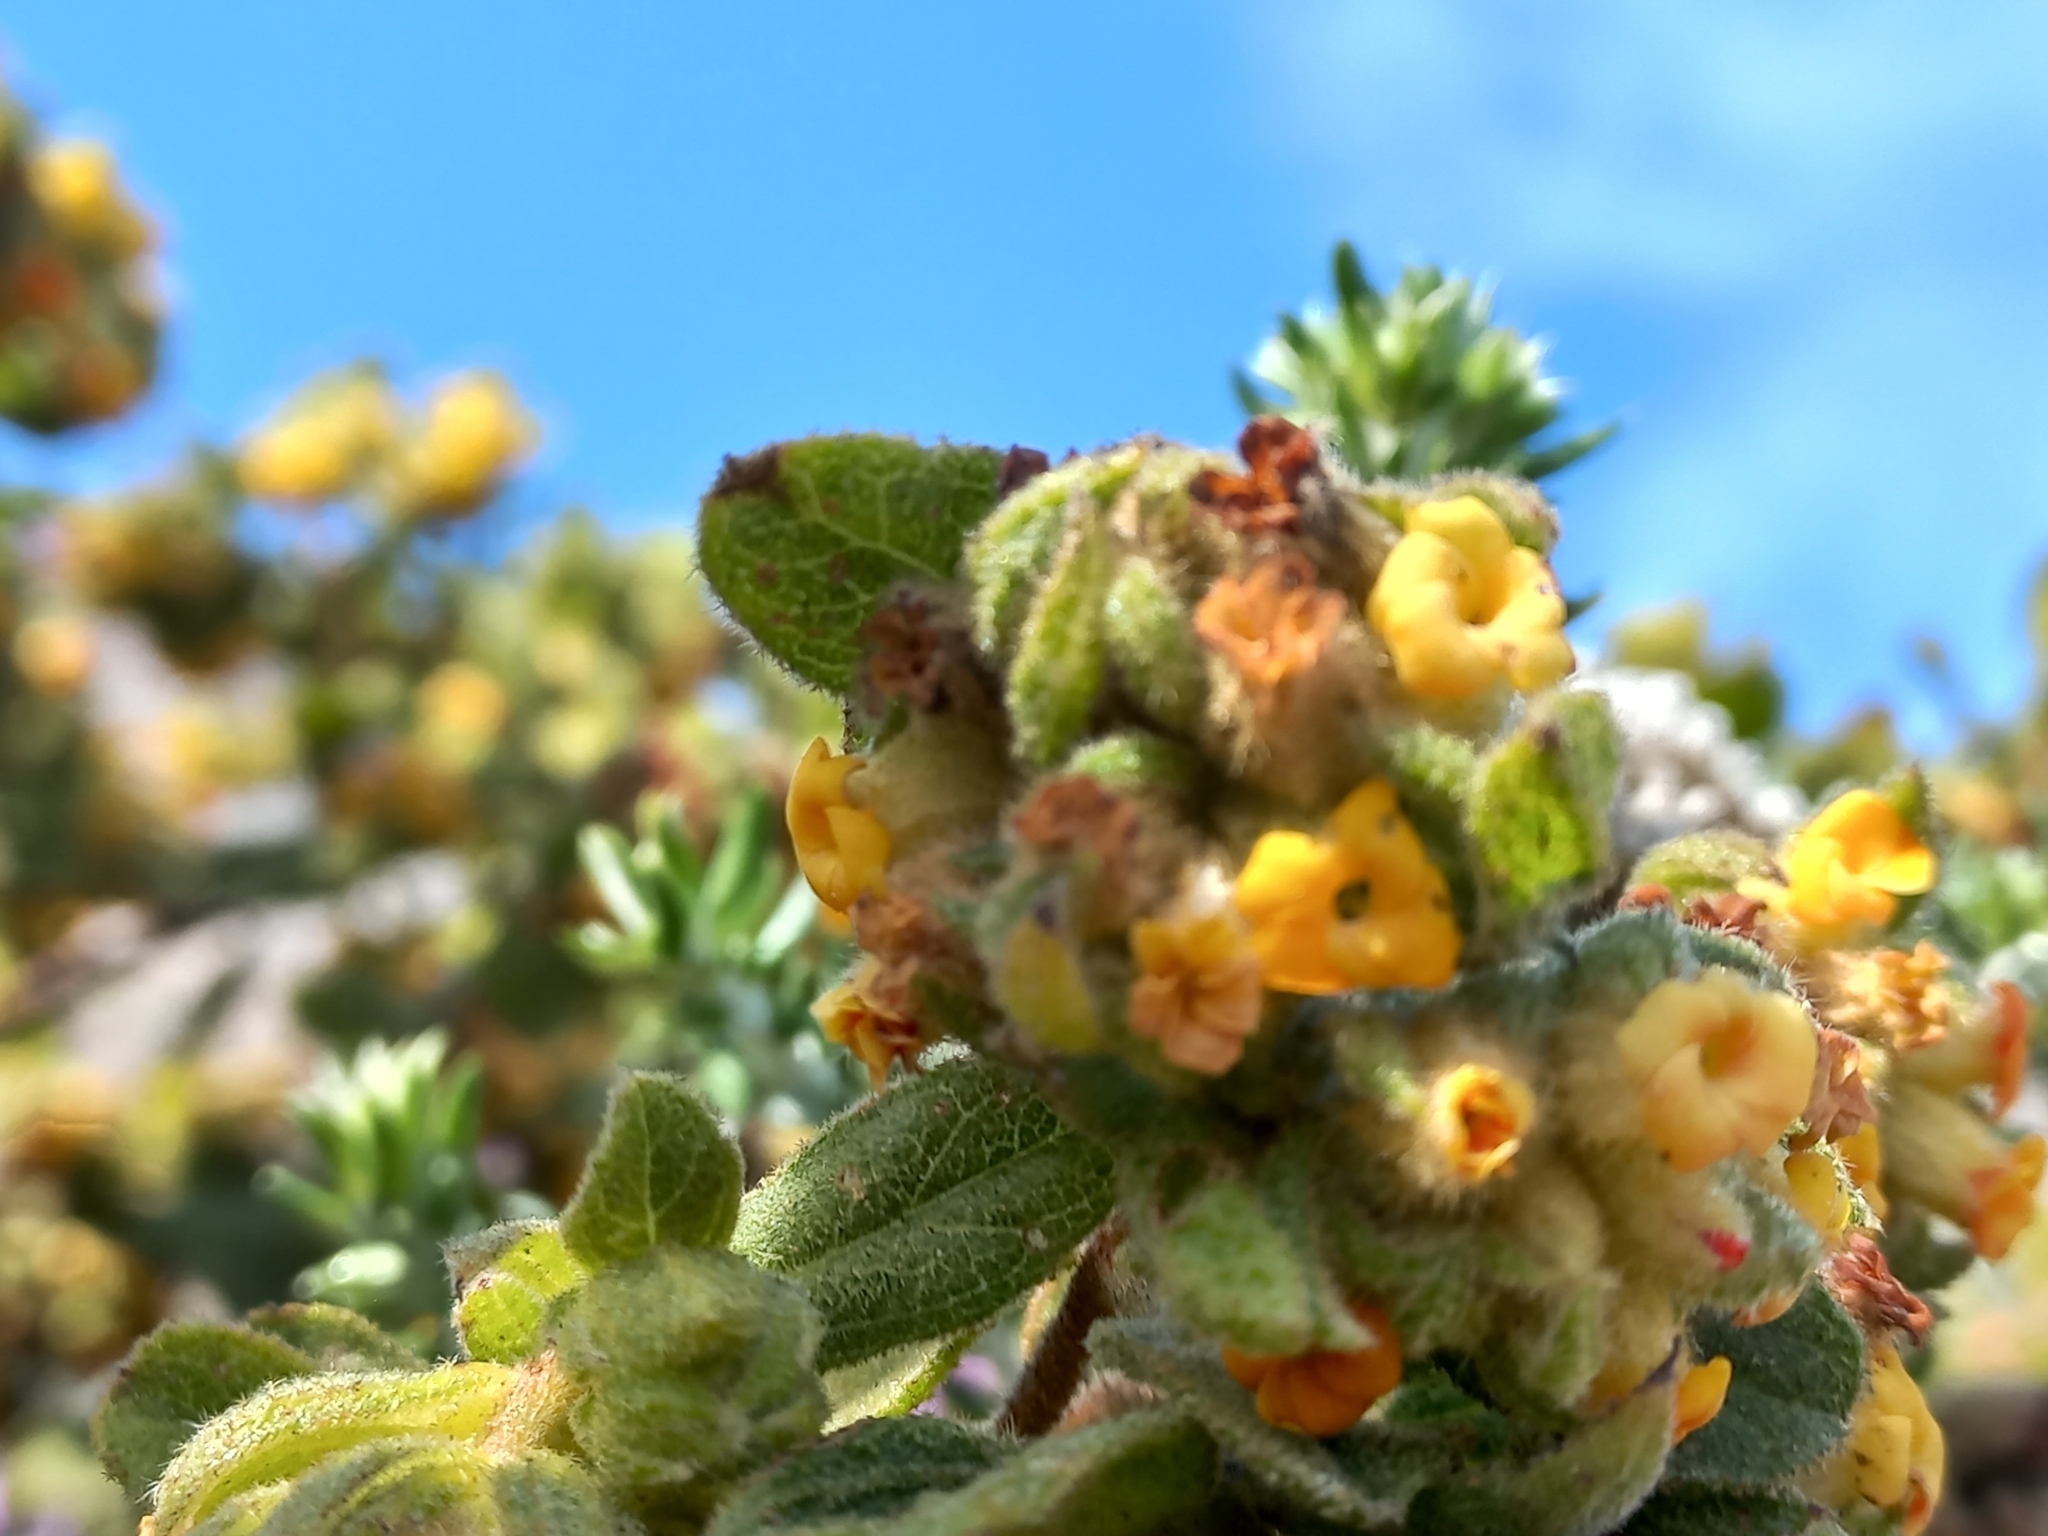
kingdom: Plantae
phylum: Tracheophyta
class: Magnoliopsida
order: Malvales
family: Malvaceae
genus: Hermannia
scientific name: Hermannia salviifolia
